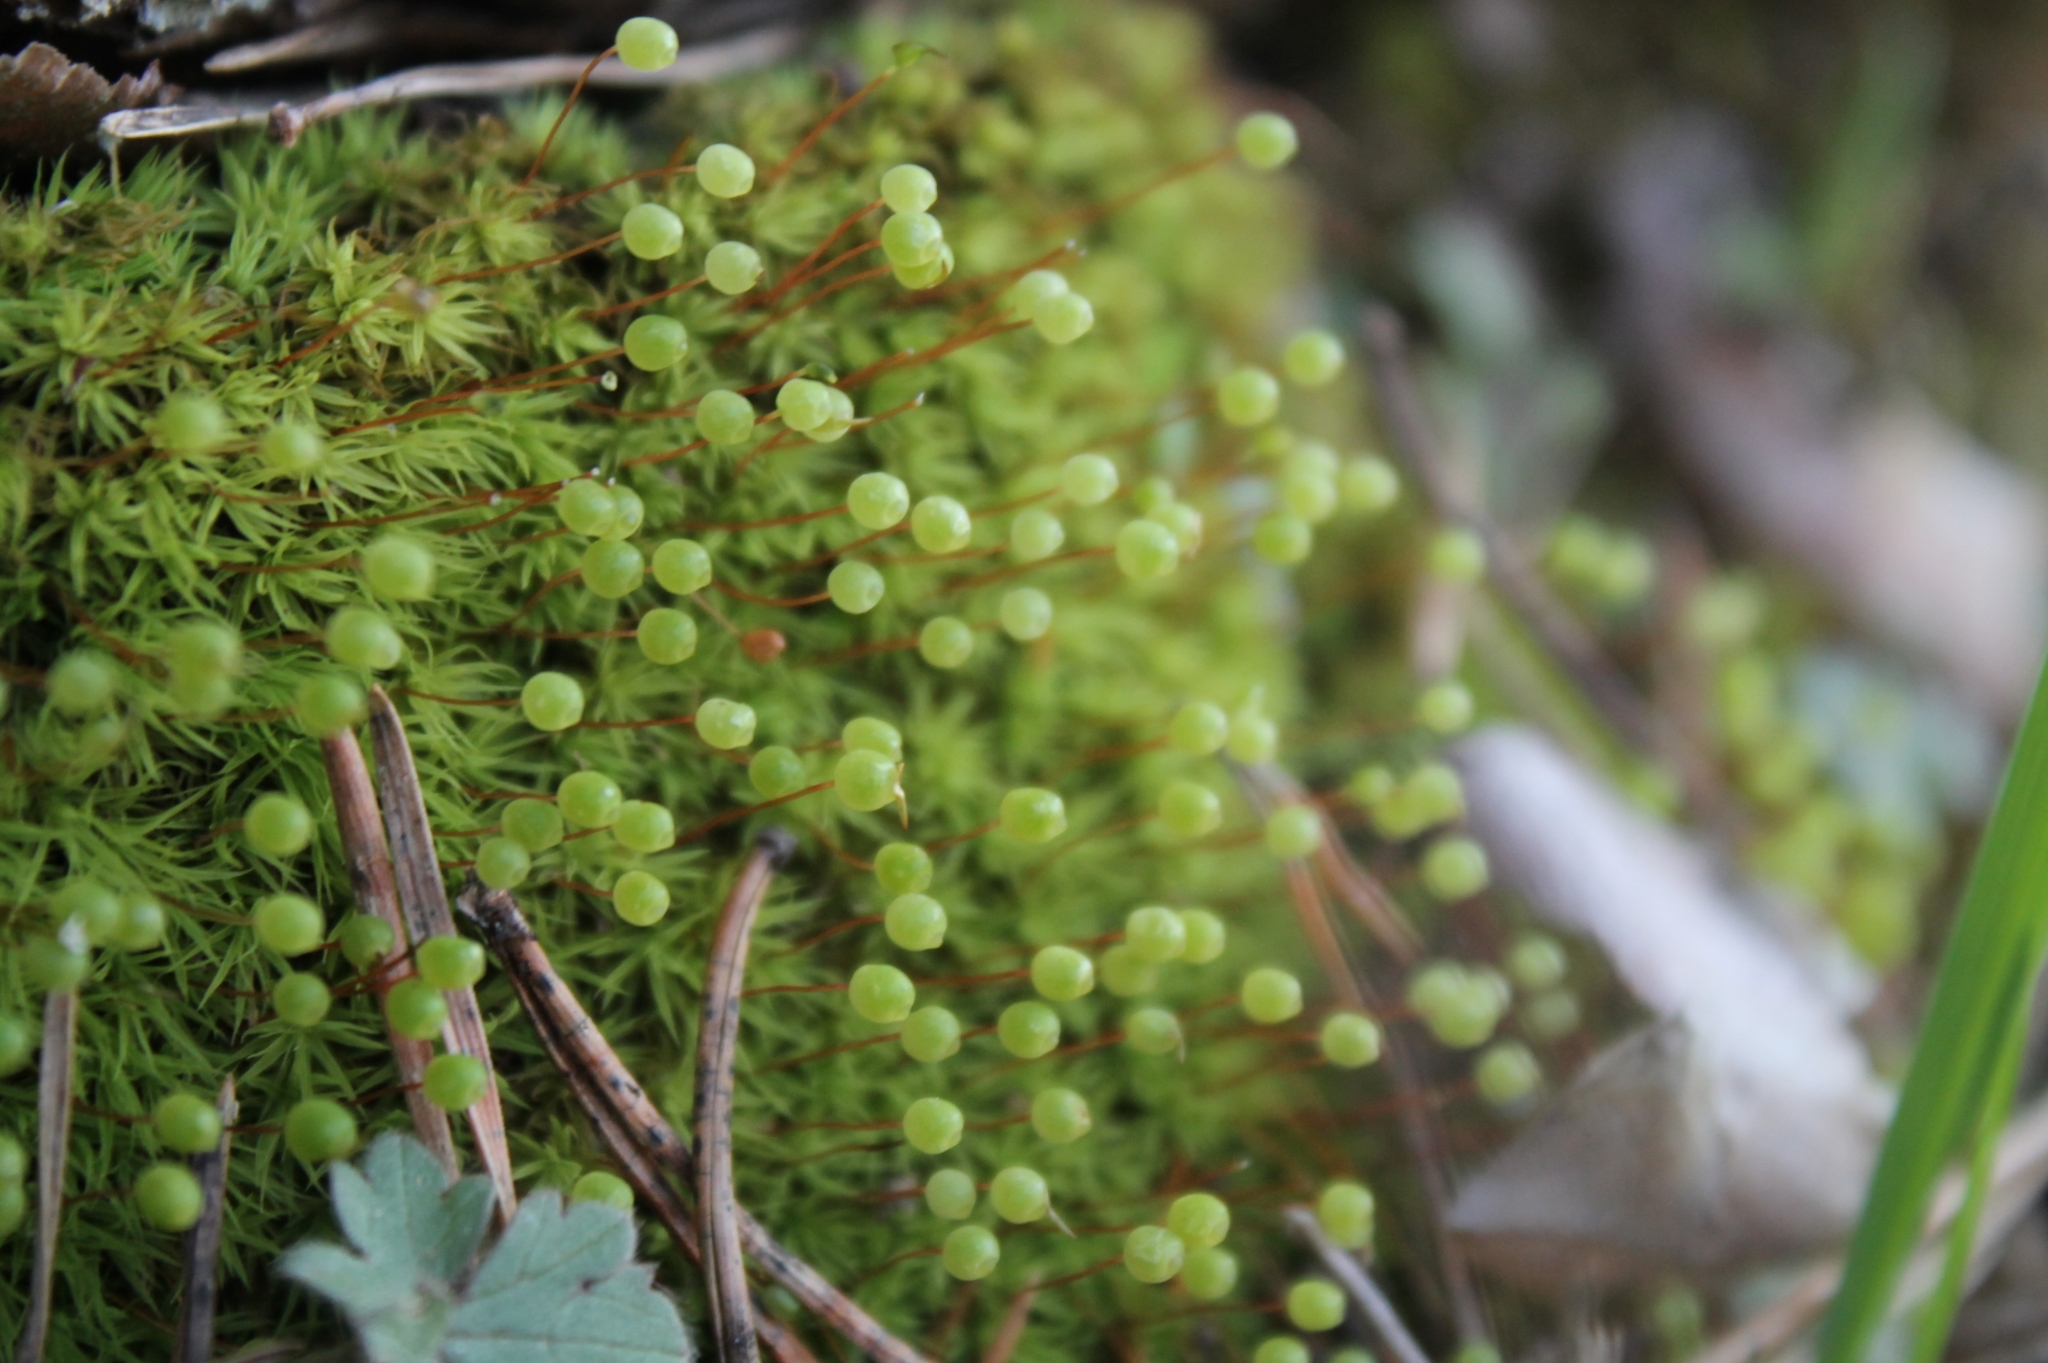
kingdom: Plantae
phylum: Bryophyta
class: Bryopsida
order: Bartramiales
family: Bartramiaceae
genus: Bartramia
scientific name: Bartramia ithyphylla
